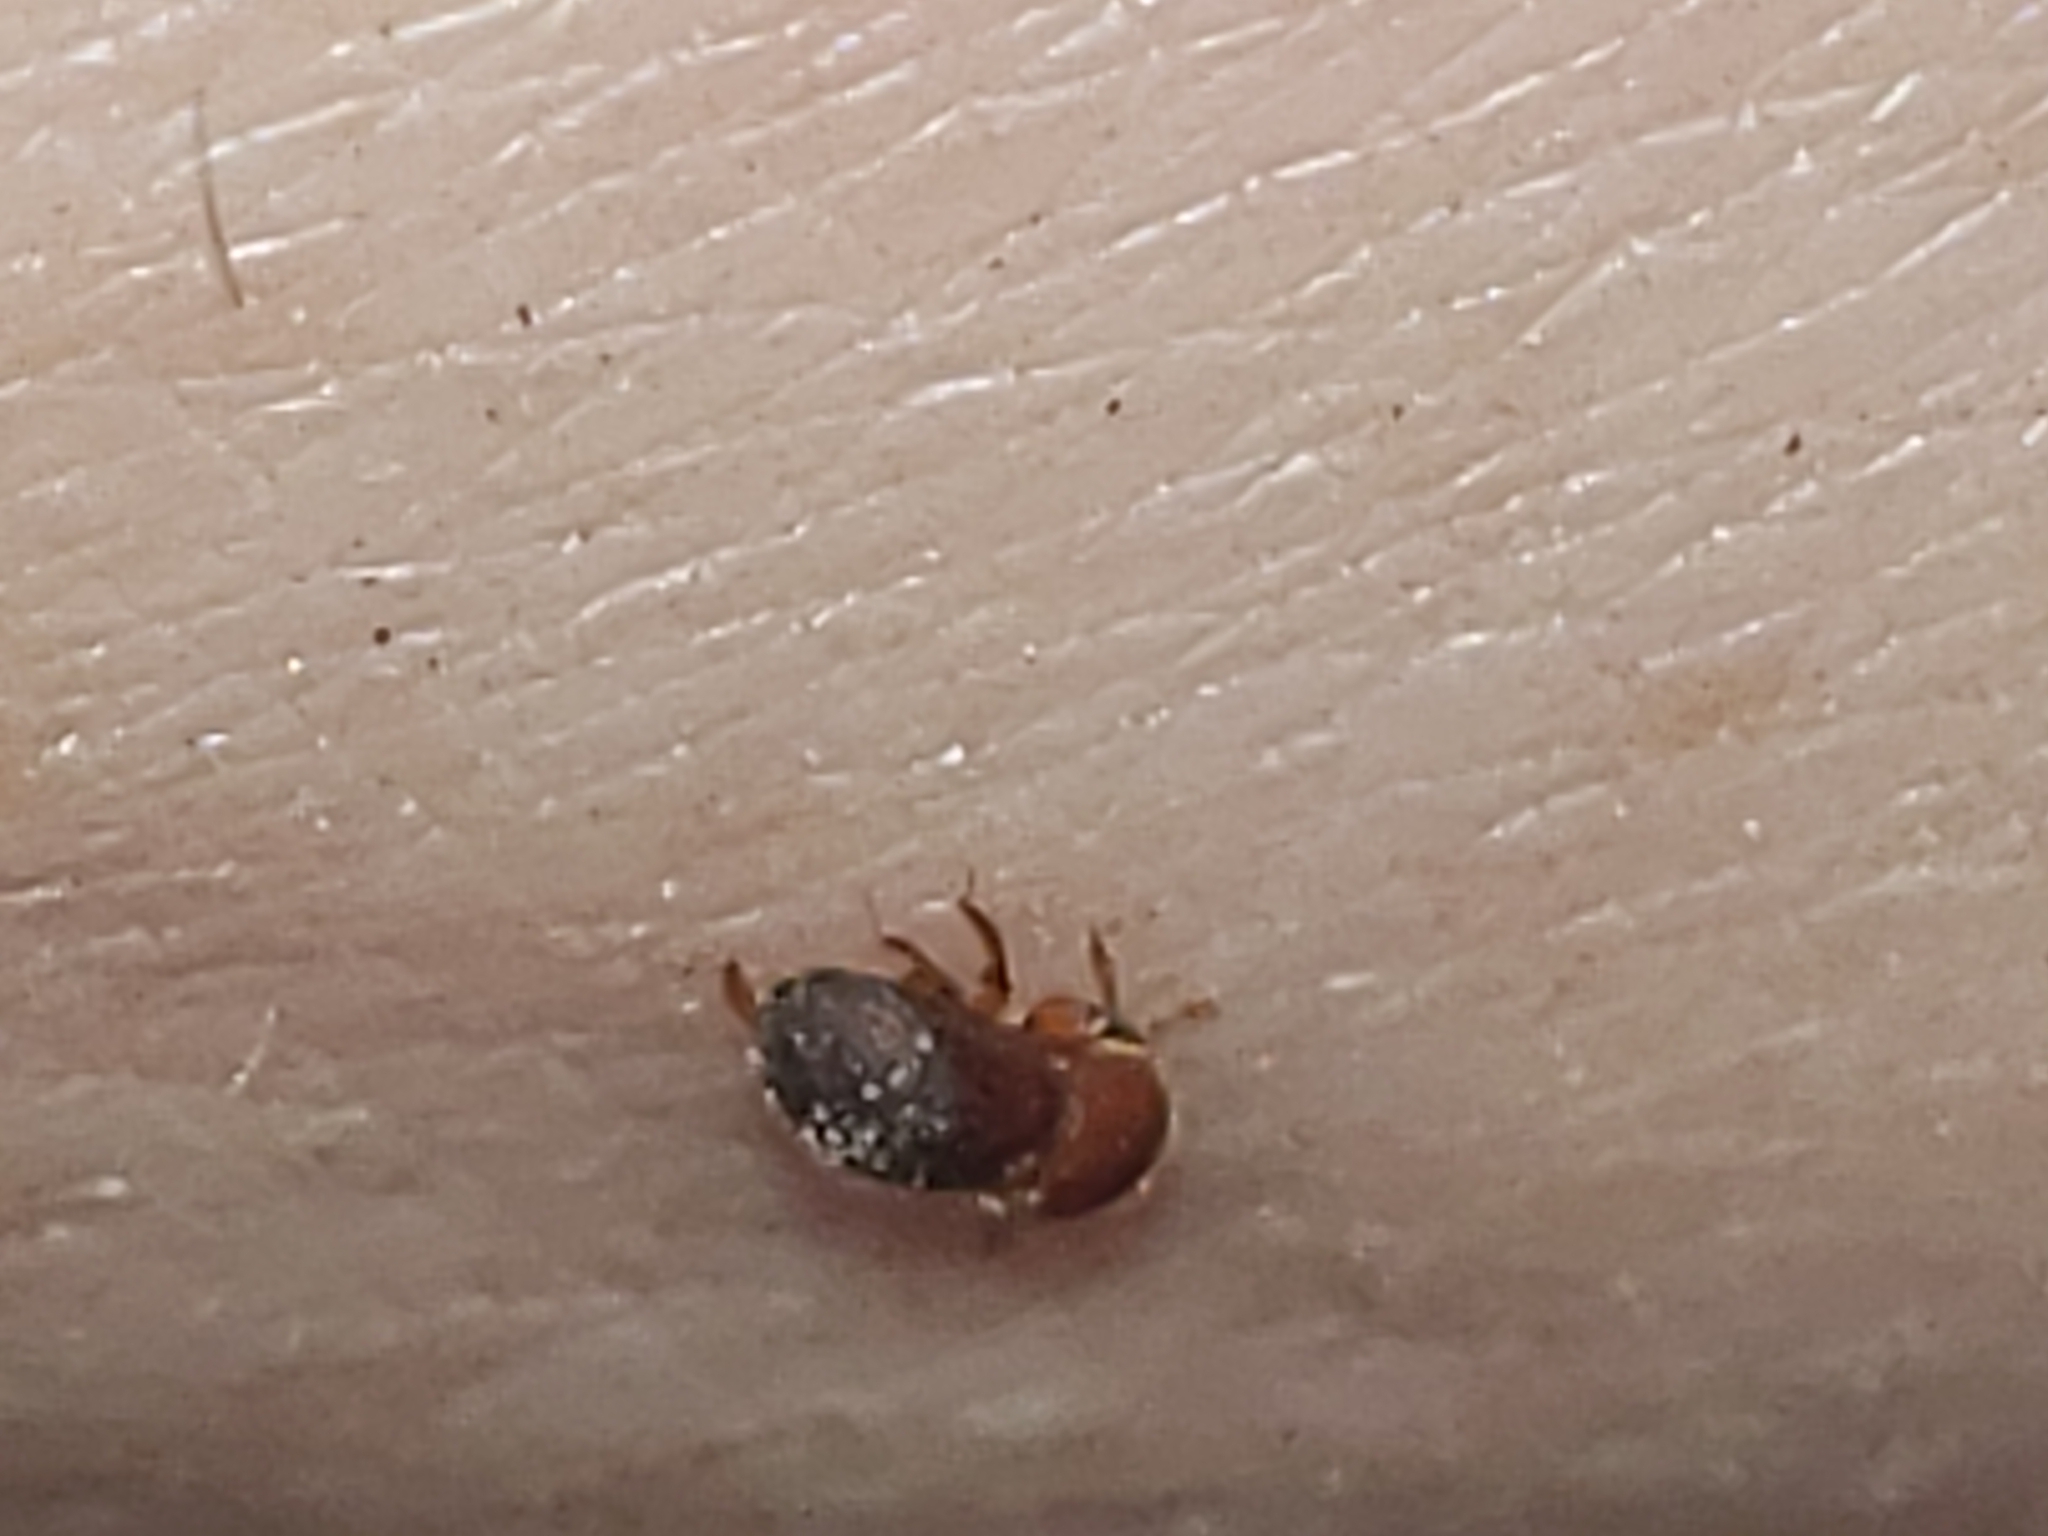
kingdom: Animalia
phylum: Arthropoda
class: Insecta
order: Coleoptera
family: Curculionidae
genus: Xylosandrus
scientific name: Xylosandrus crassiusculus
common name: Granulate ambrosia beetle
